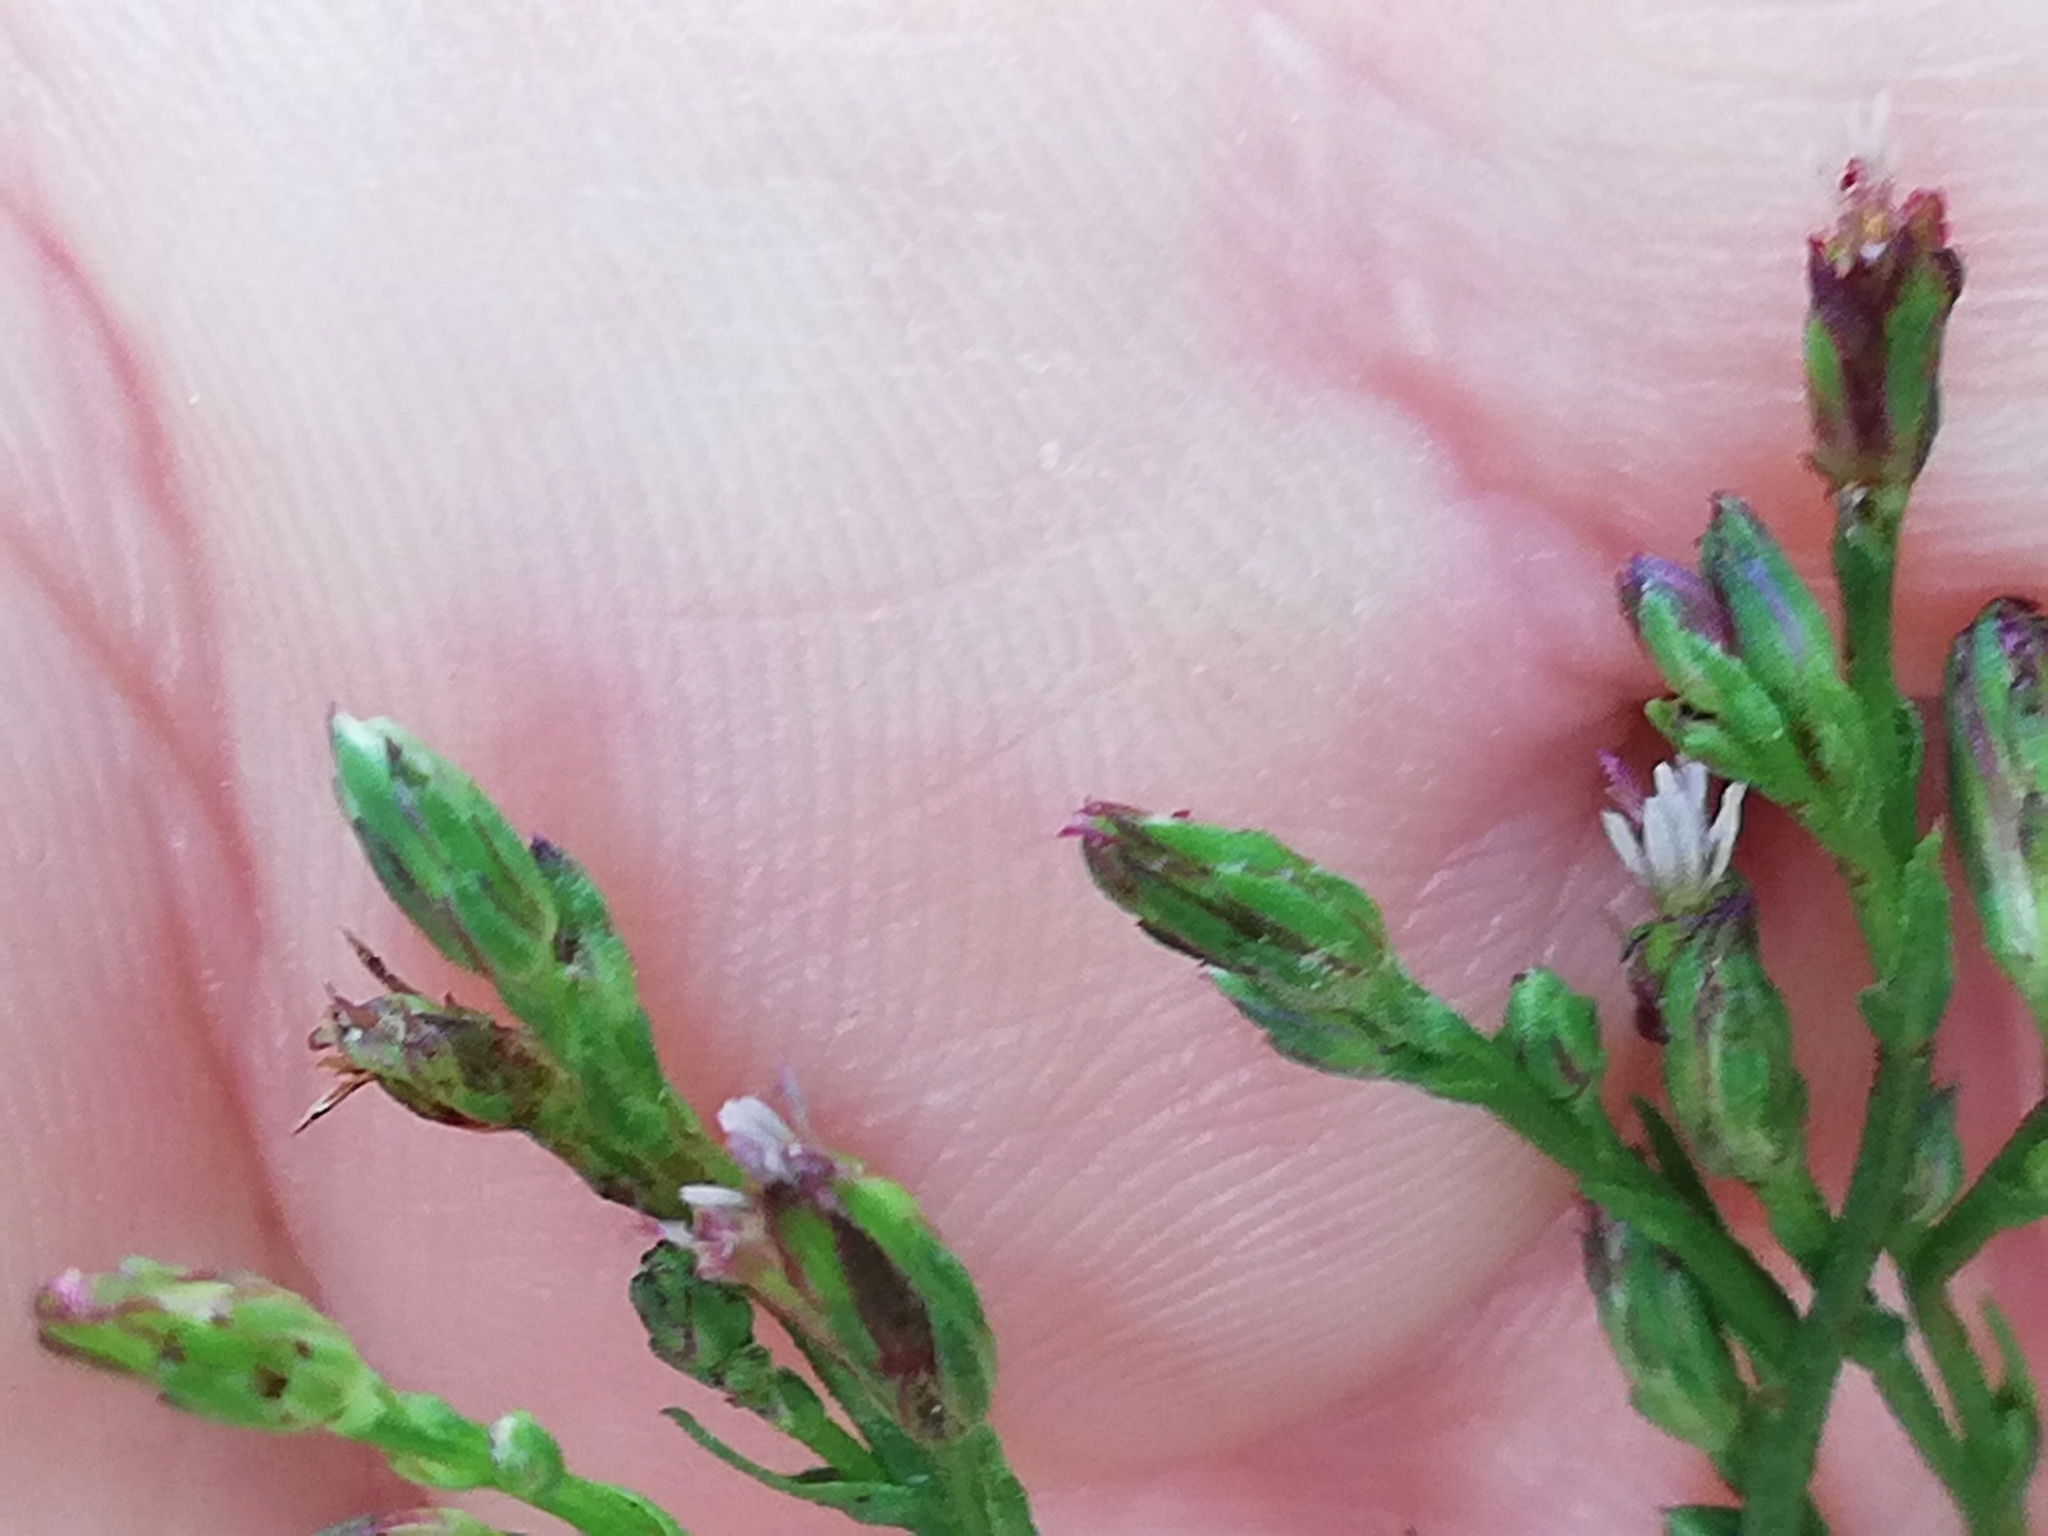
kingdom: Plantae
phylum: Tracheophyta
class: Magnoliopsida
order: Asterales
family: Asteraceae
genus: Symphyotrichum
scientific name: Symphyotrichum squamatum
